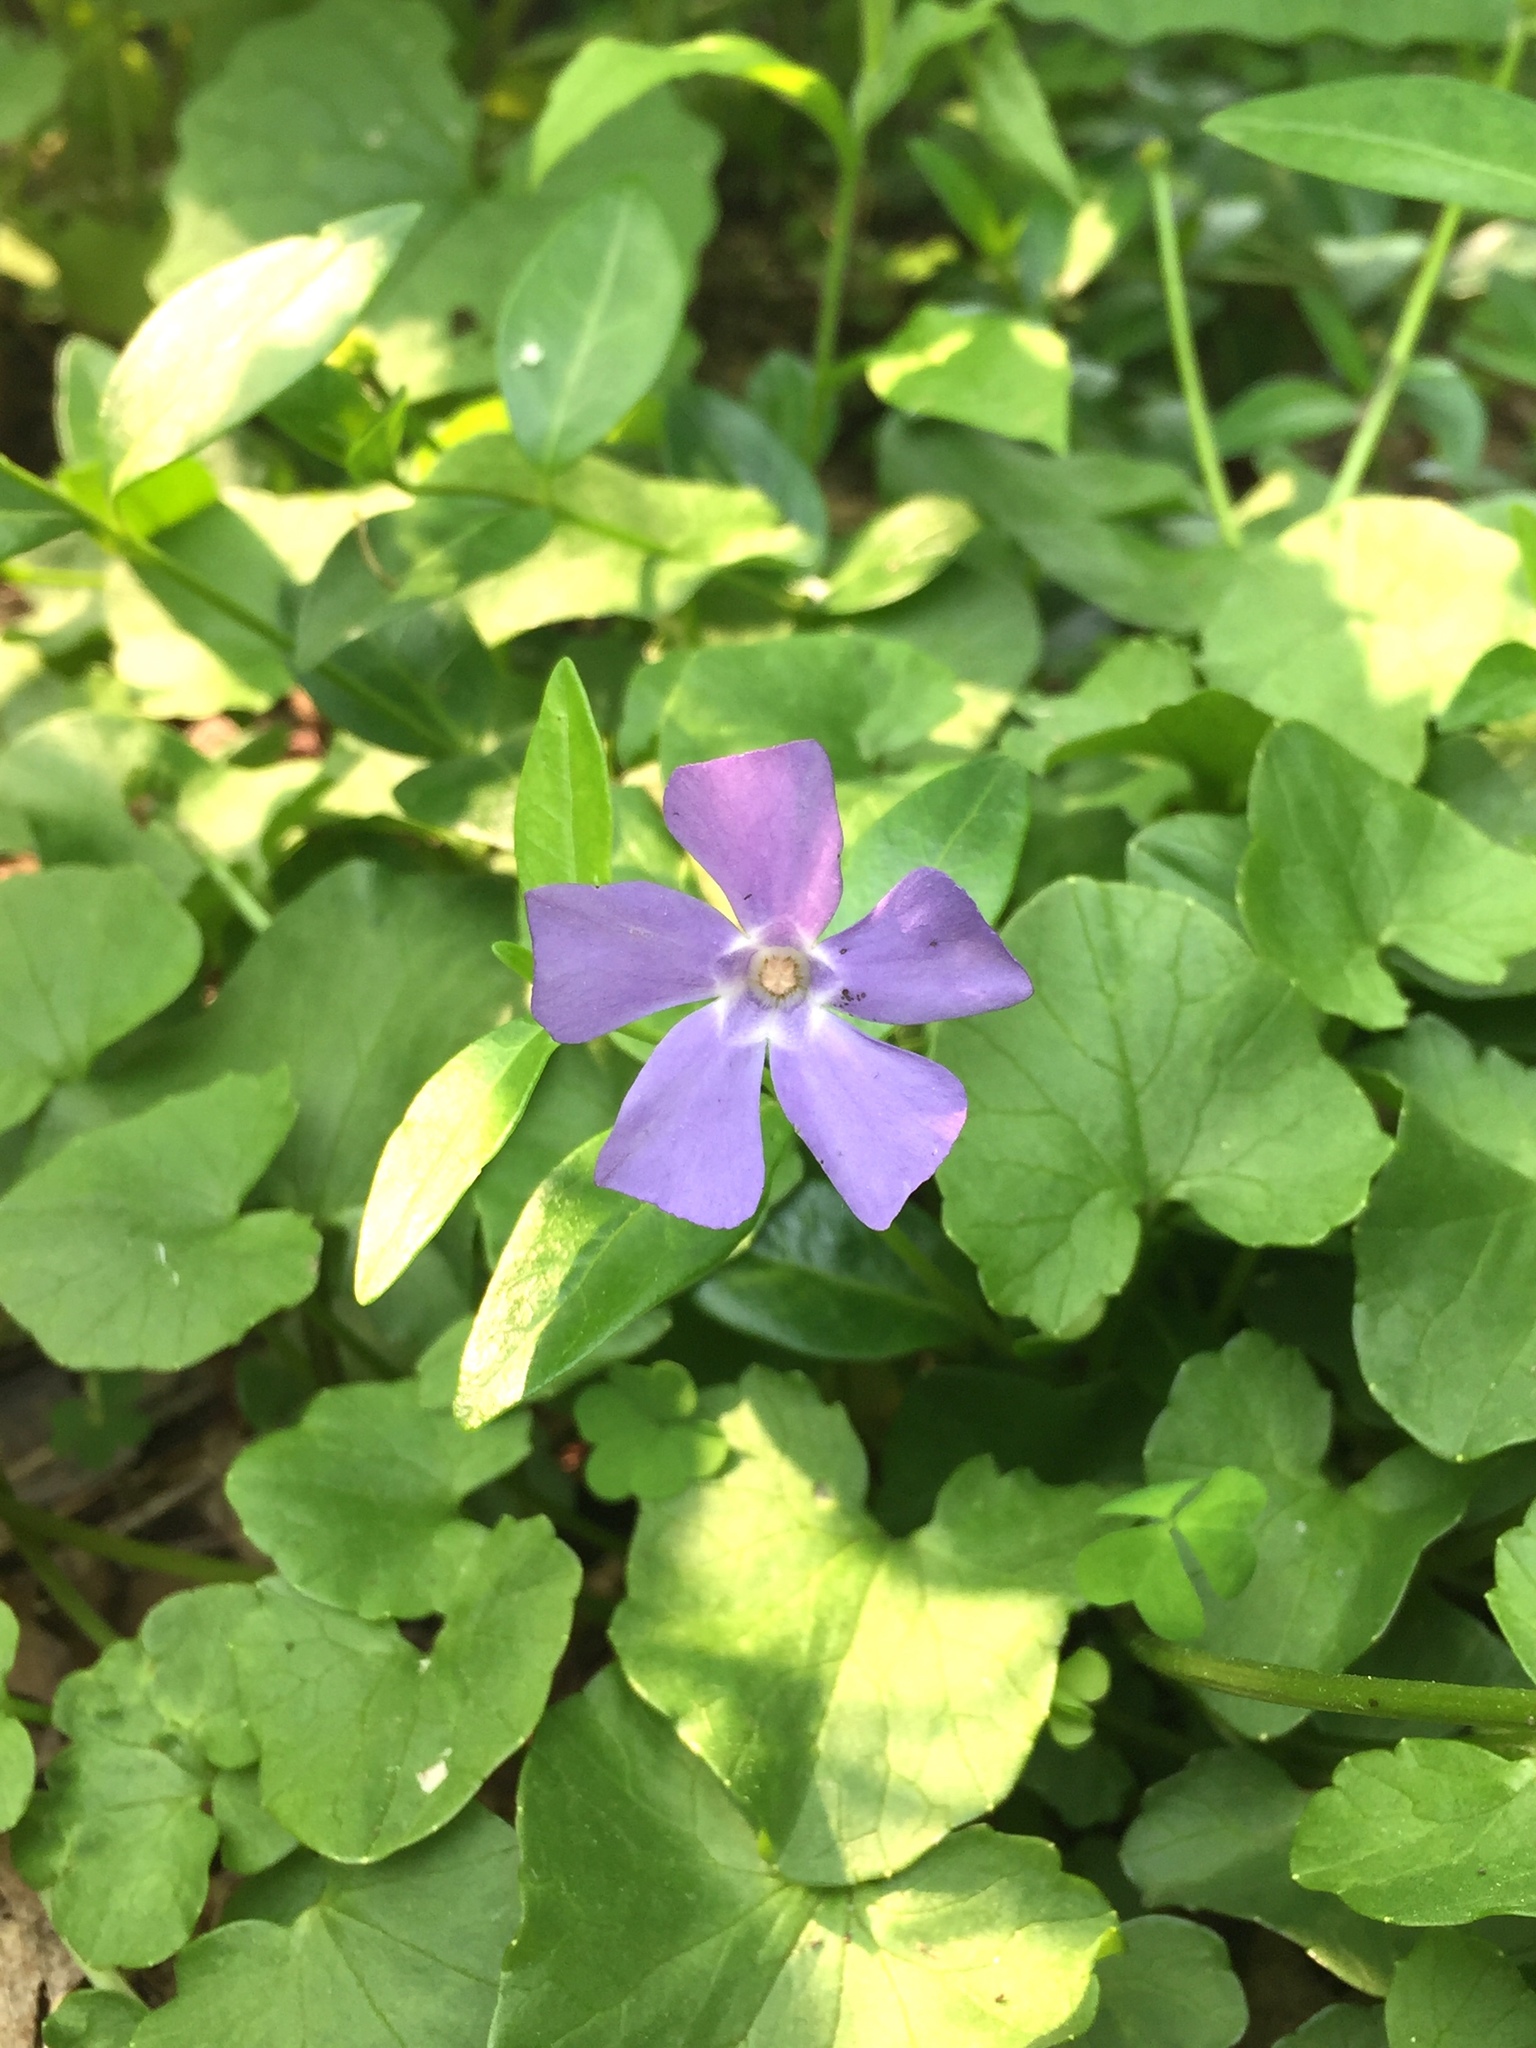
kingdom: Plantae
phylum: Tracheophyta
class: Magnoliopsida
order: Gentianales
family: Apocynaceae
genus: Vinca
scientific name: Vinca minor
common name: Lesser periwinkle
